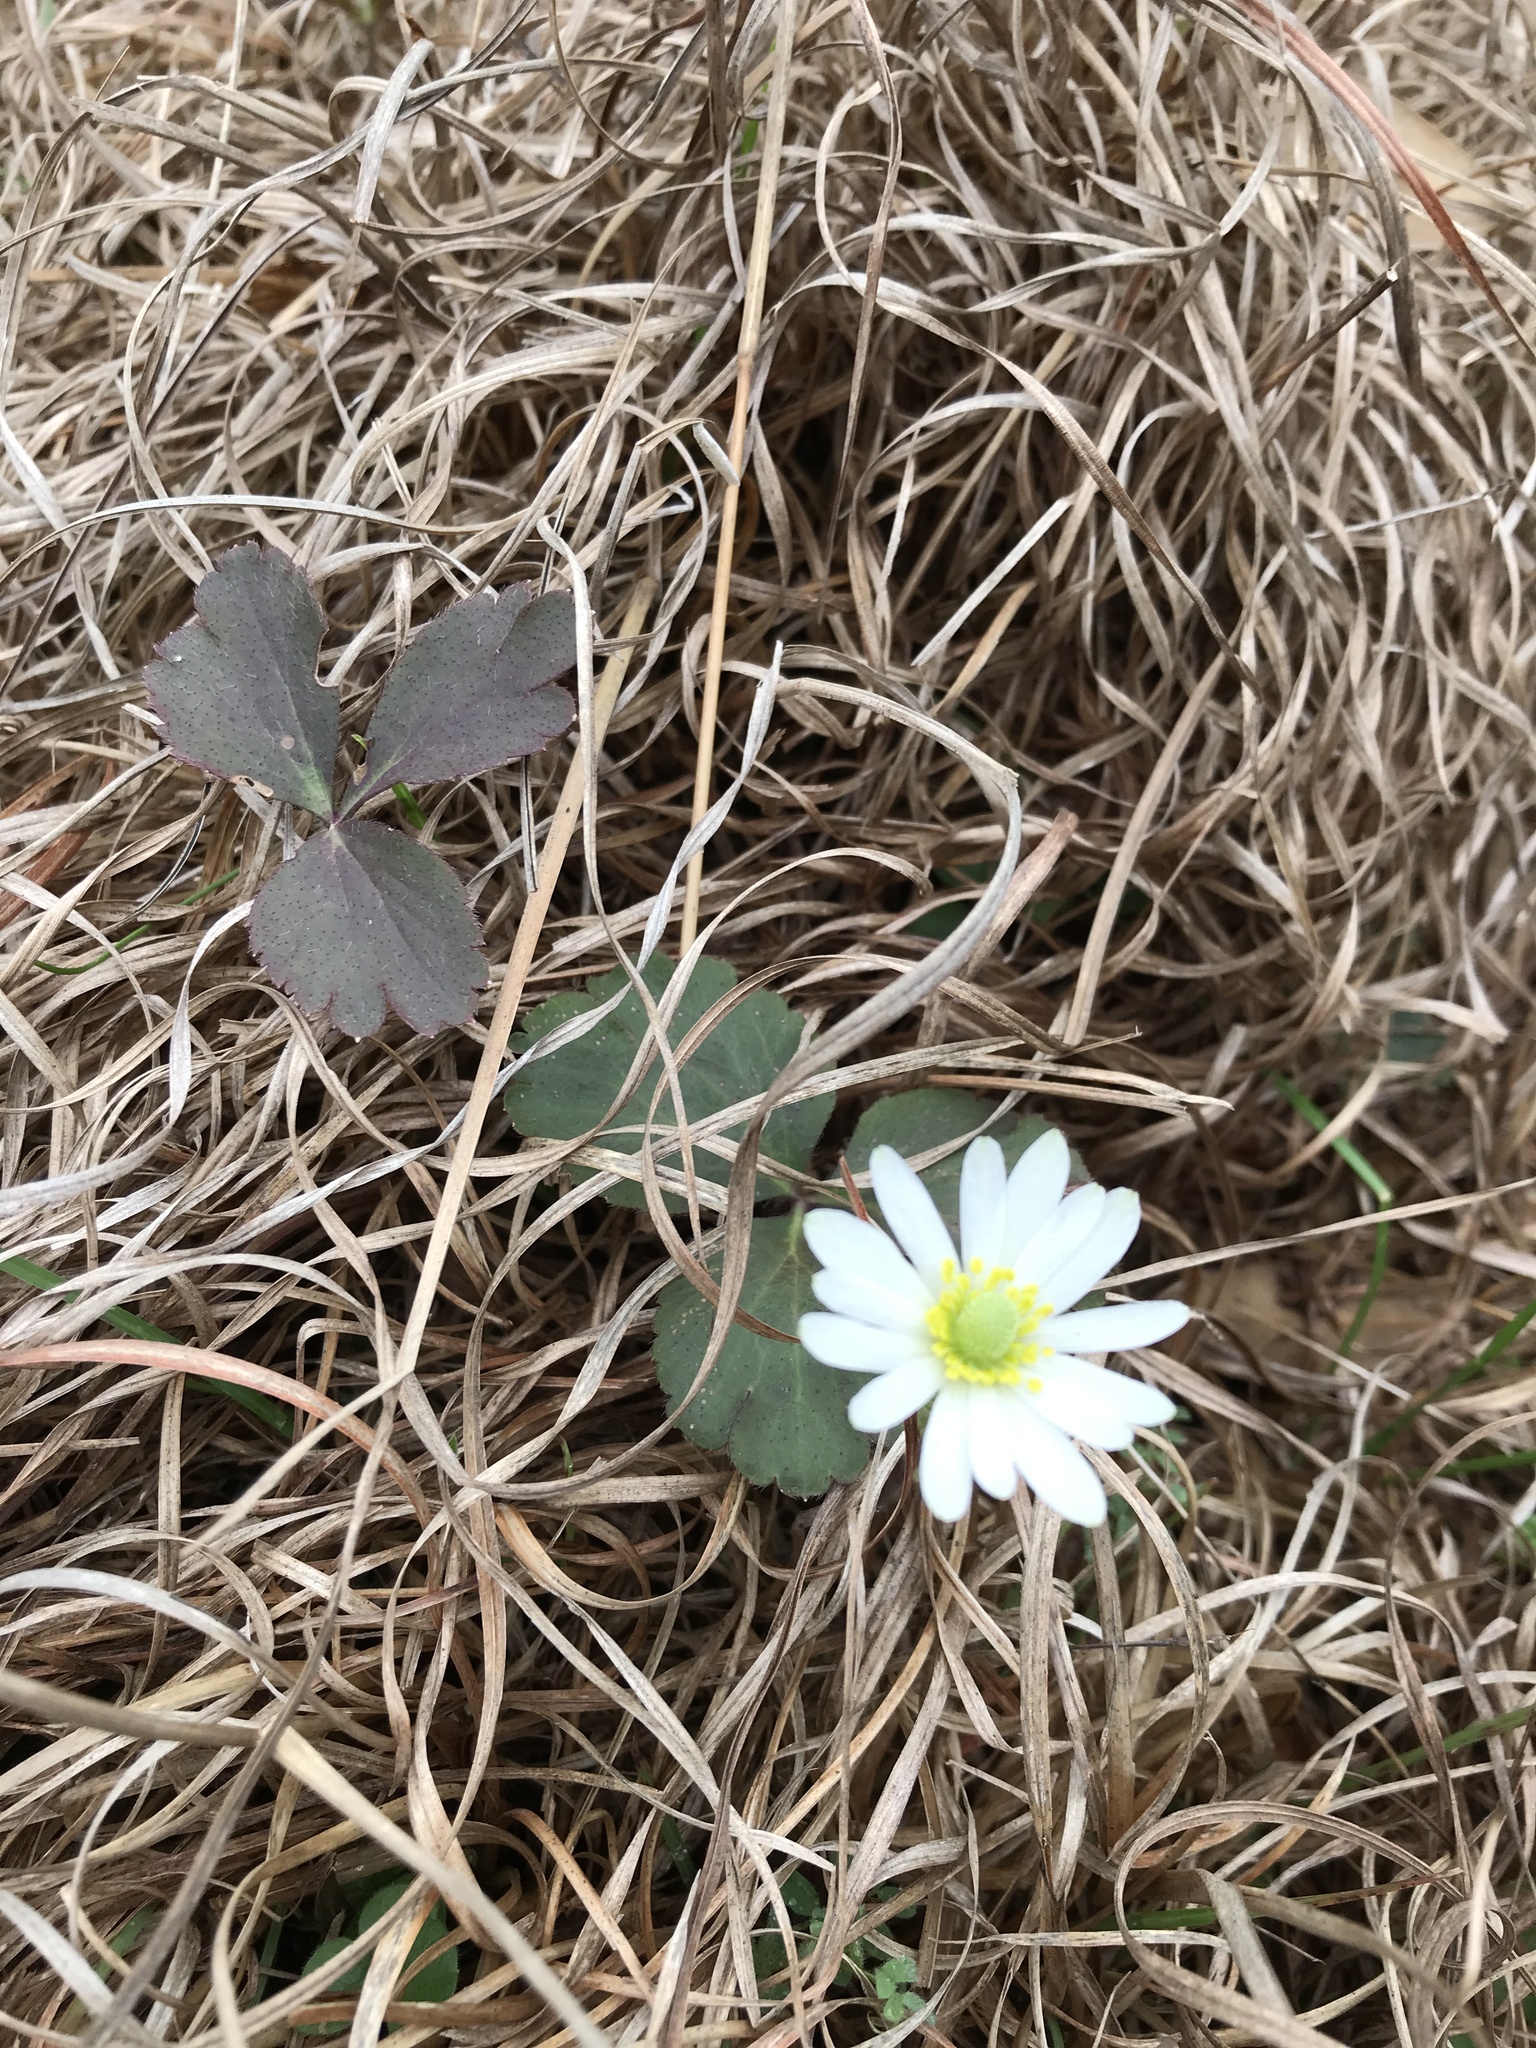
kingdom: Plantae
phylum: Tracheophyta
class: Magnoliopsida
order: Ranunculales
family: Ranunculaceae
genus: Anemone
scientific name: Anemone berlandieri
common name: Ten-petal anemone
